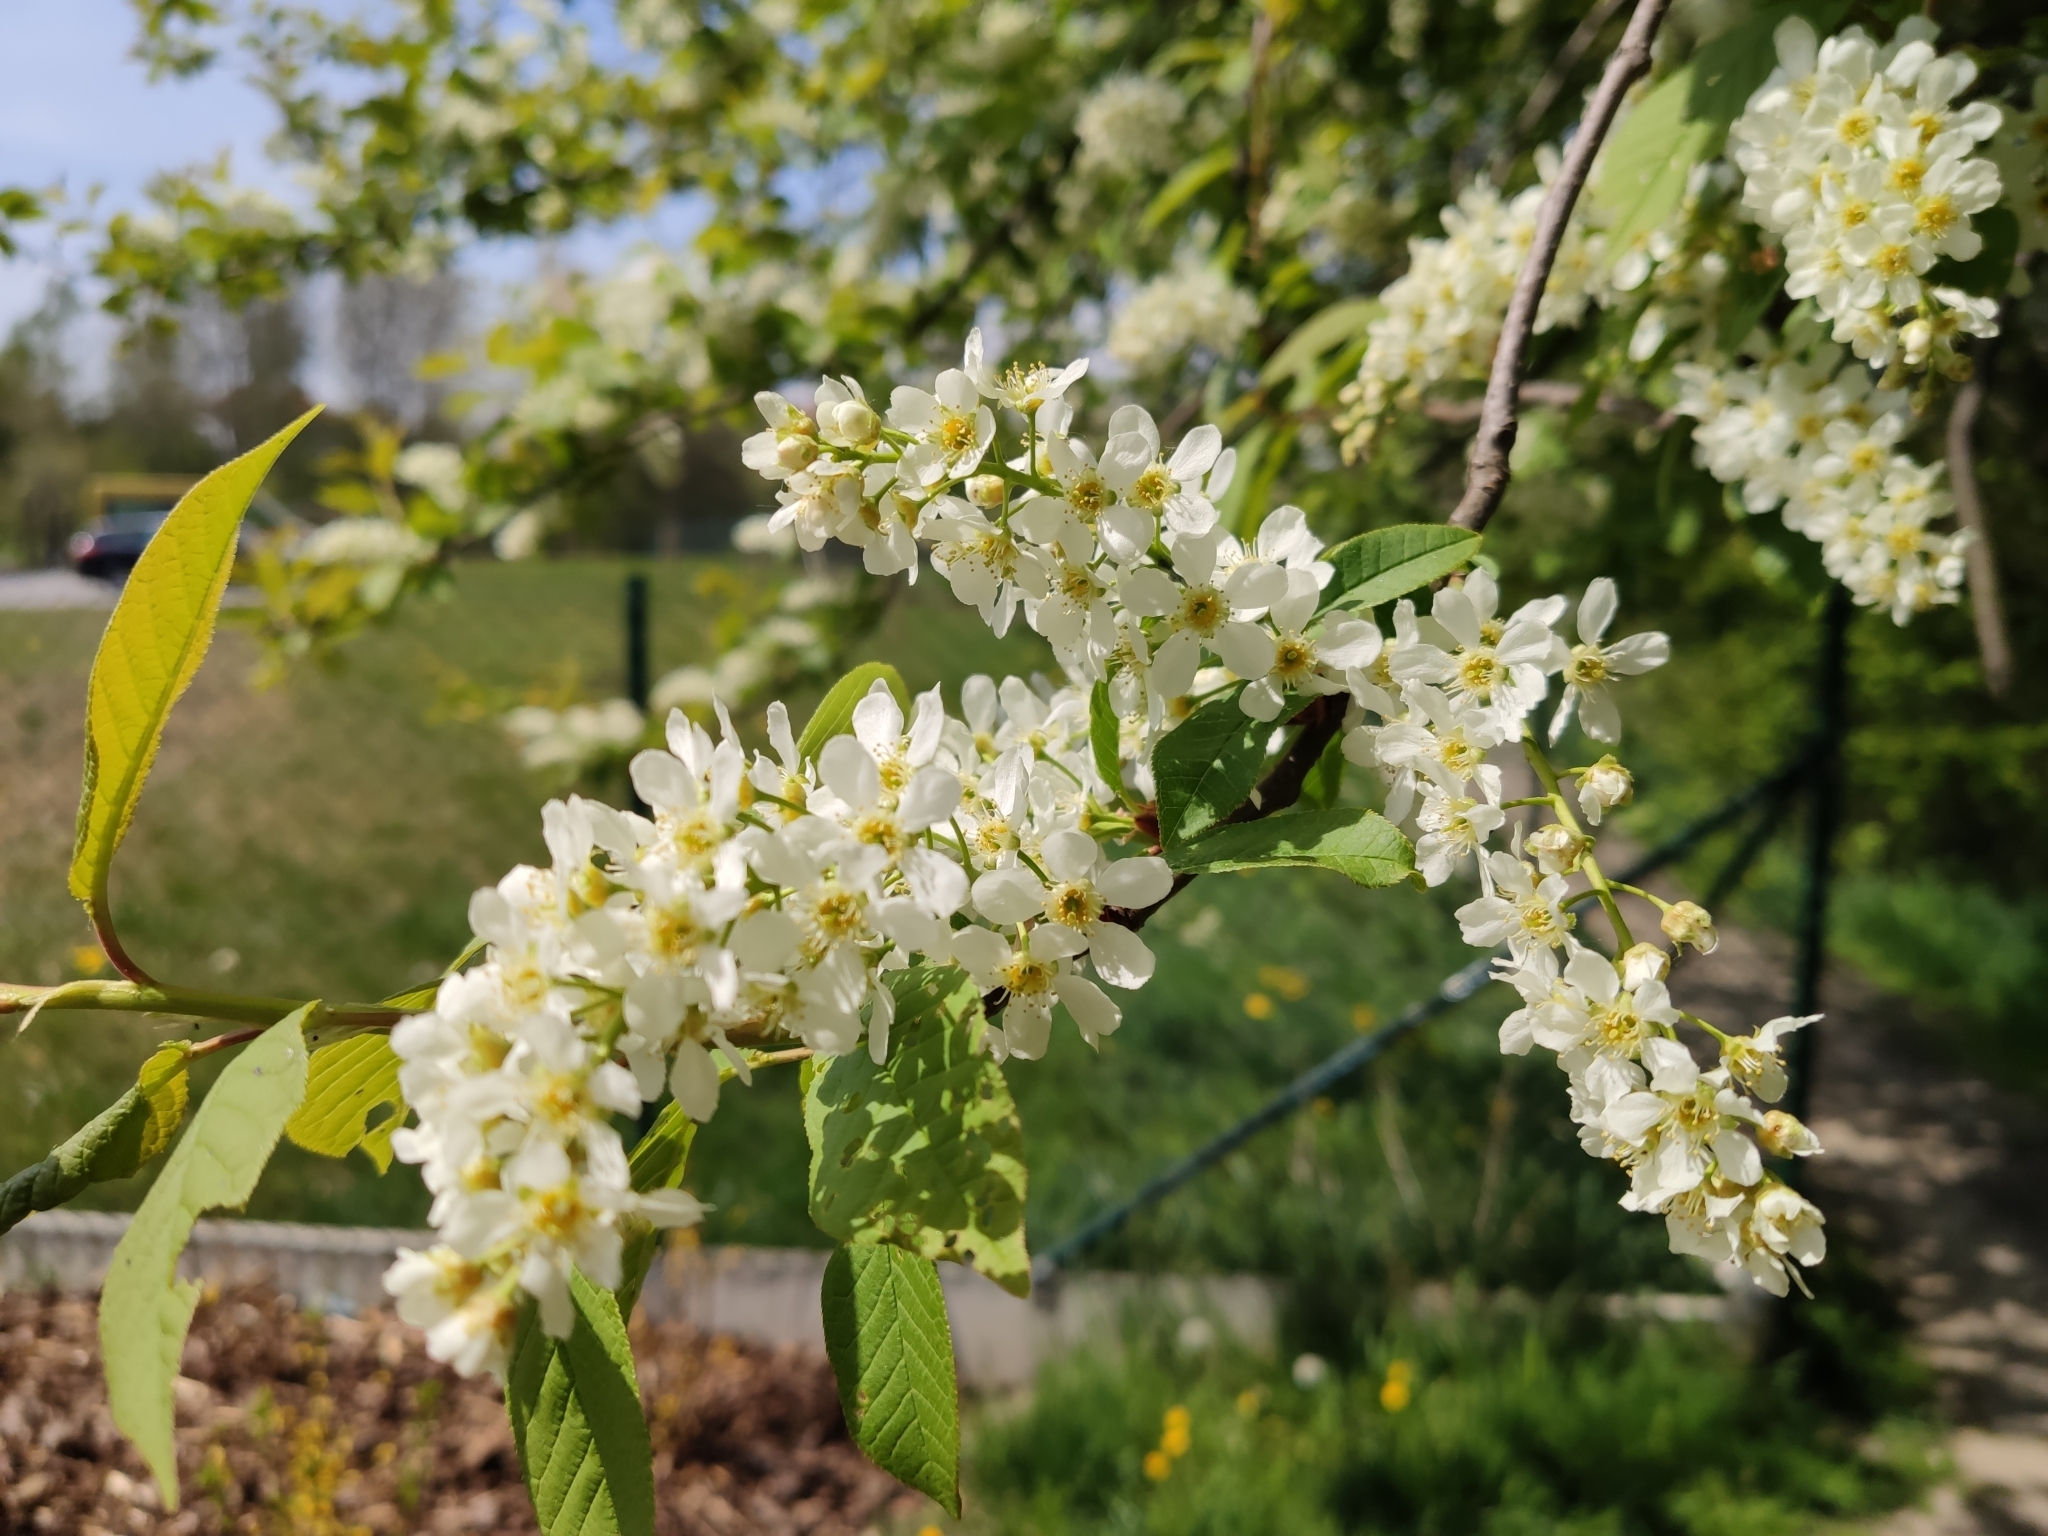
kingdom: Plantae
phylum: Tracheophyta
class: Magnoliopsida
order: Rosales
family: Rosaceae
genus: Prunus
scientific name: Prunus padus
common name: Bird cherry
